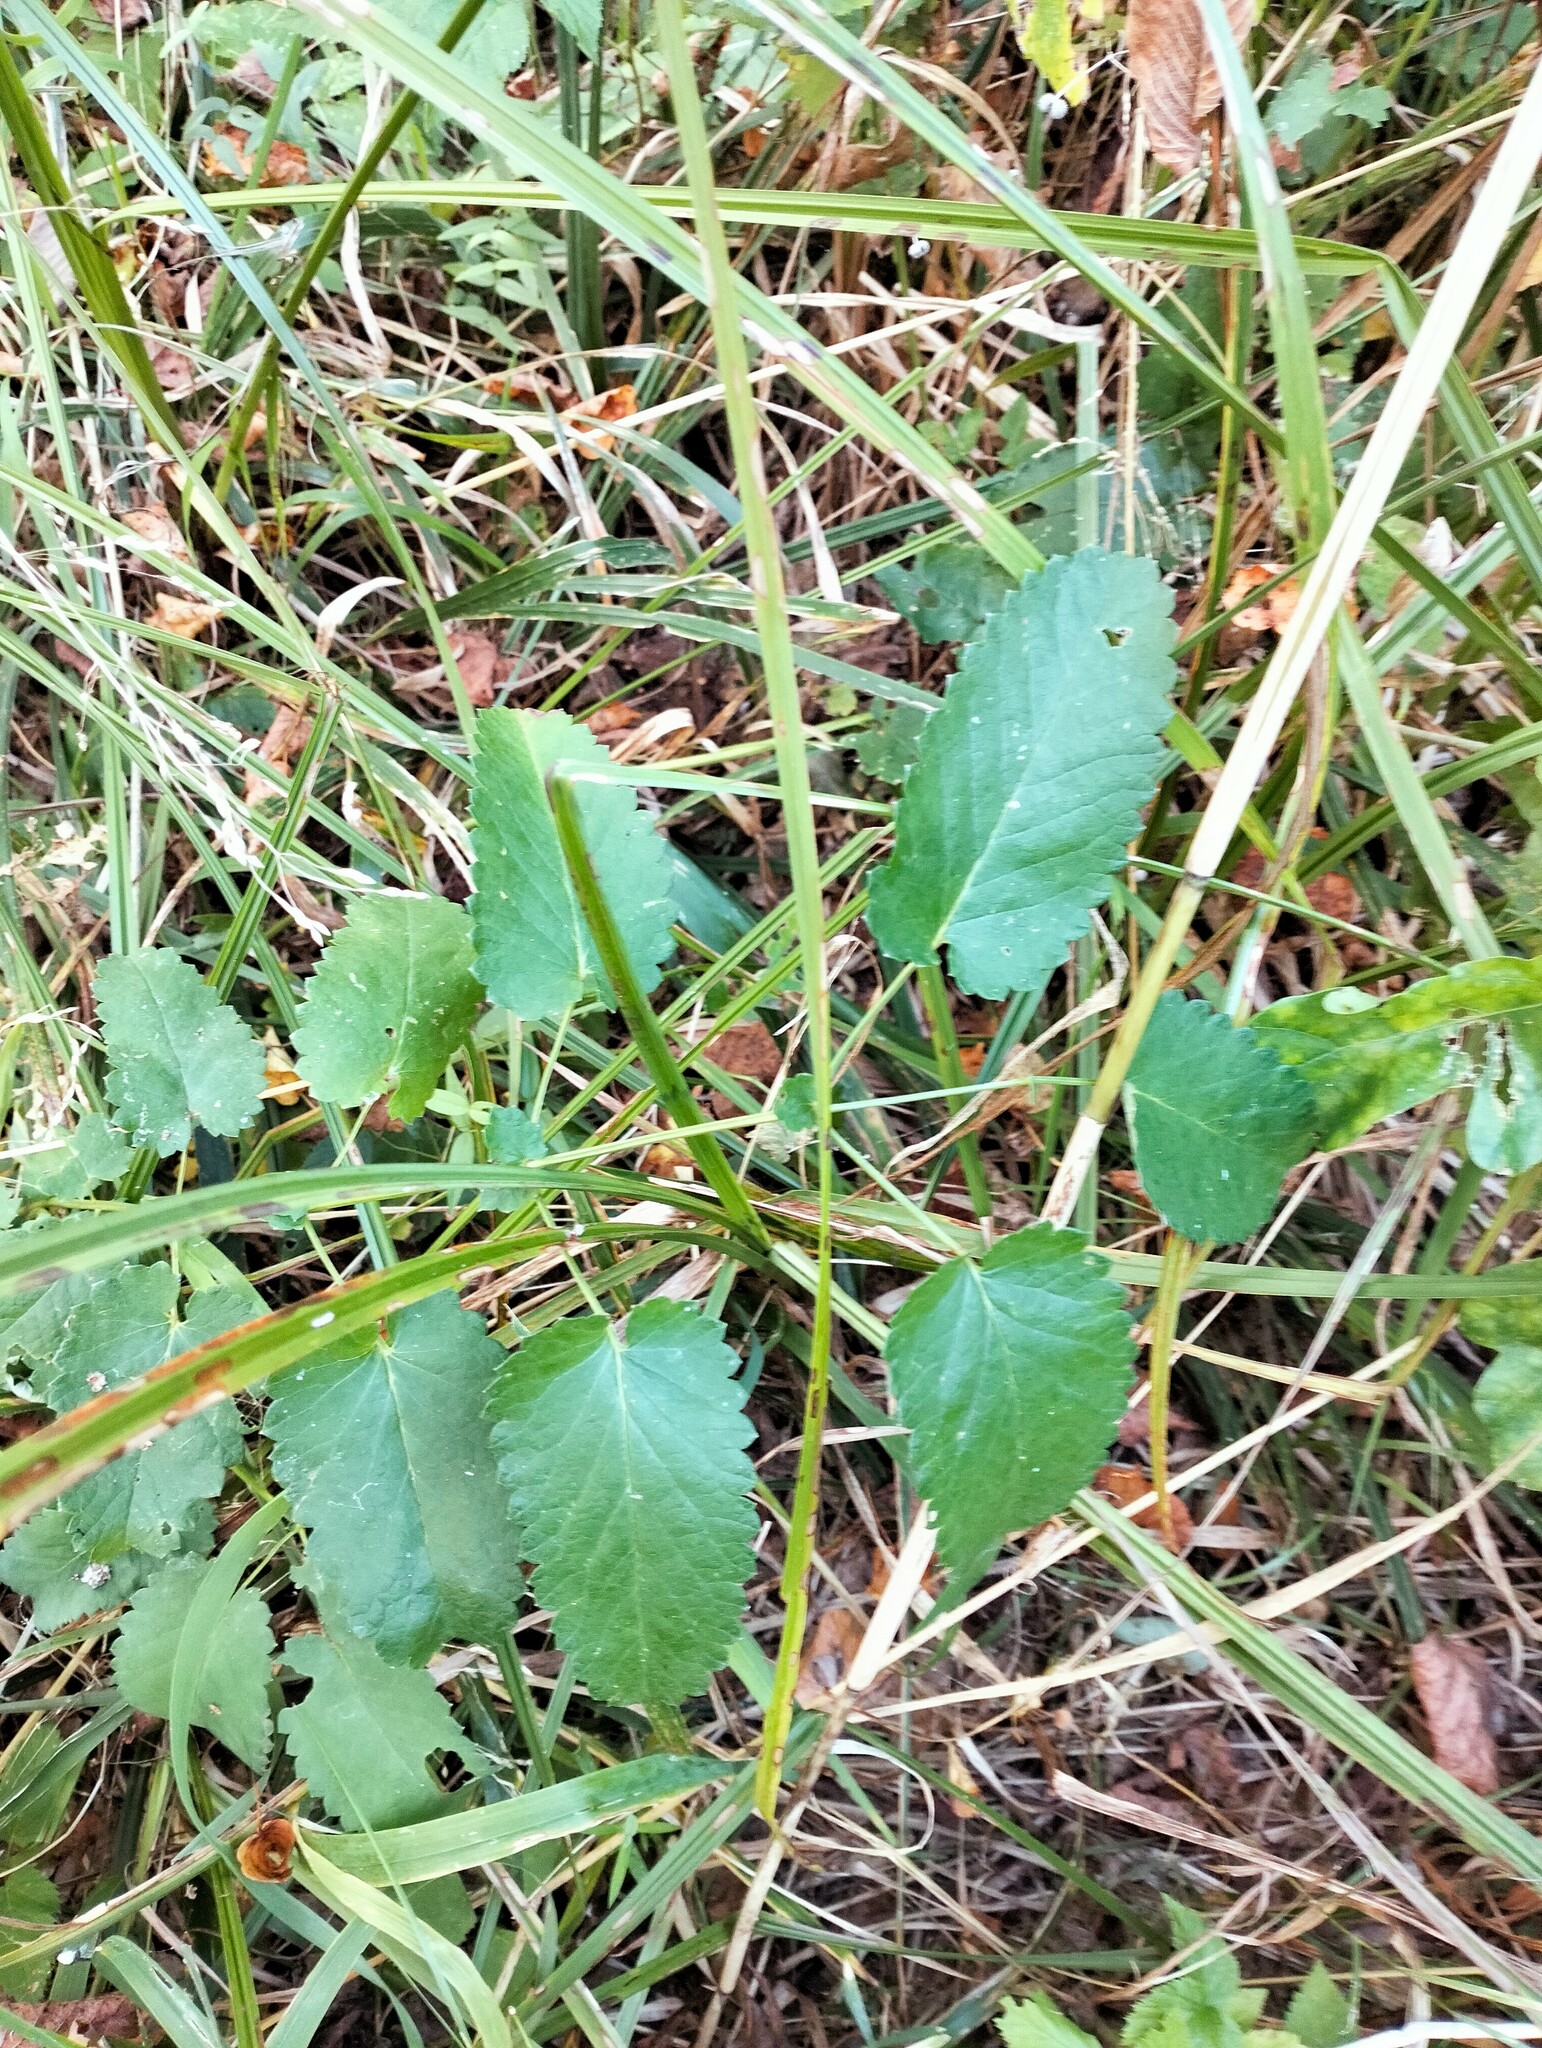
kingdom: Plantae
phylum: Tracheophyta
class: Magnoliopsida
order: Rosales
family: Rosaceae
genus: Sanguisorba
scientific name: Sanguisorba officinalis
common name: Great burnet
